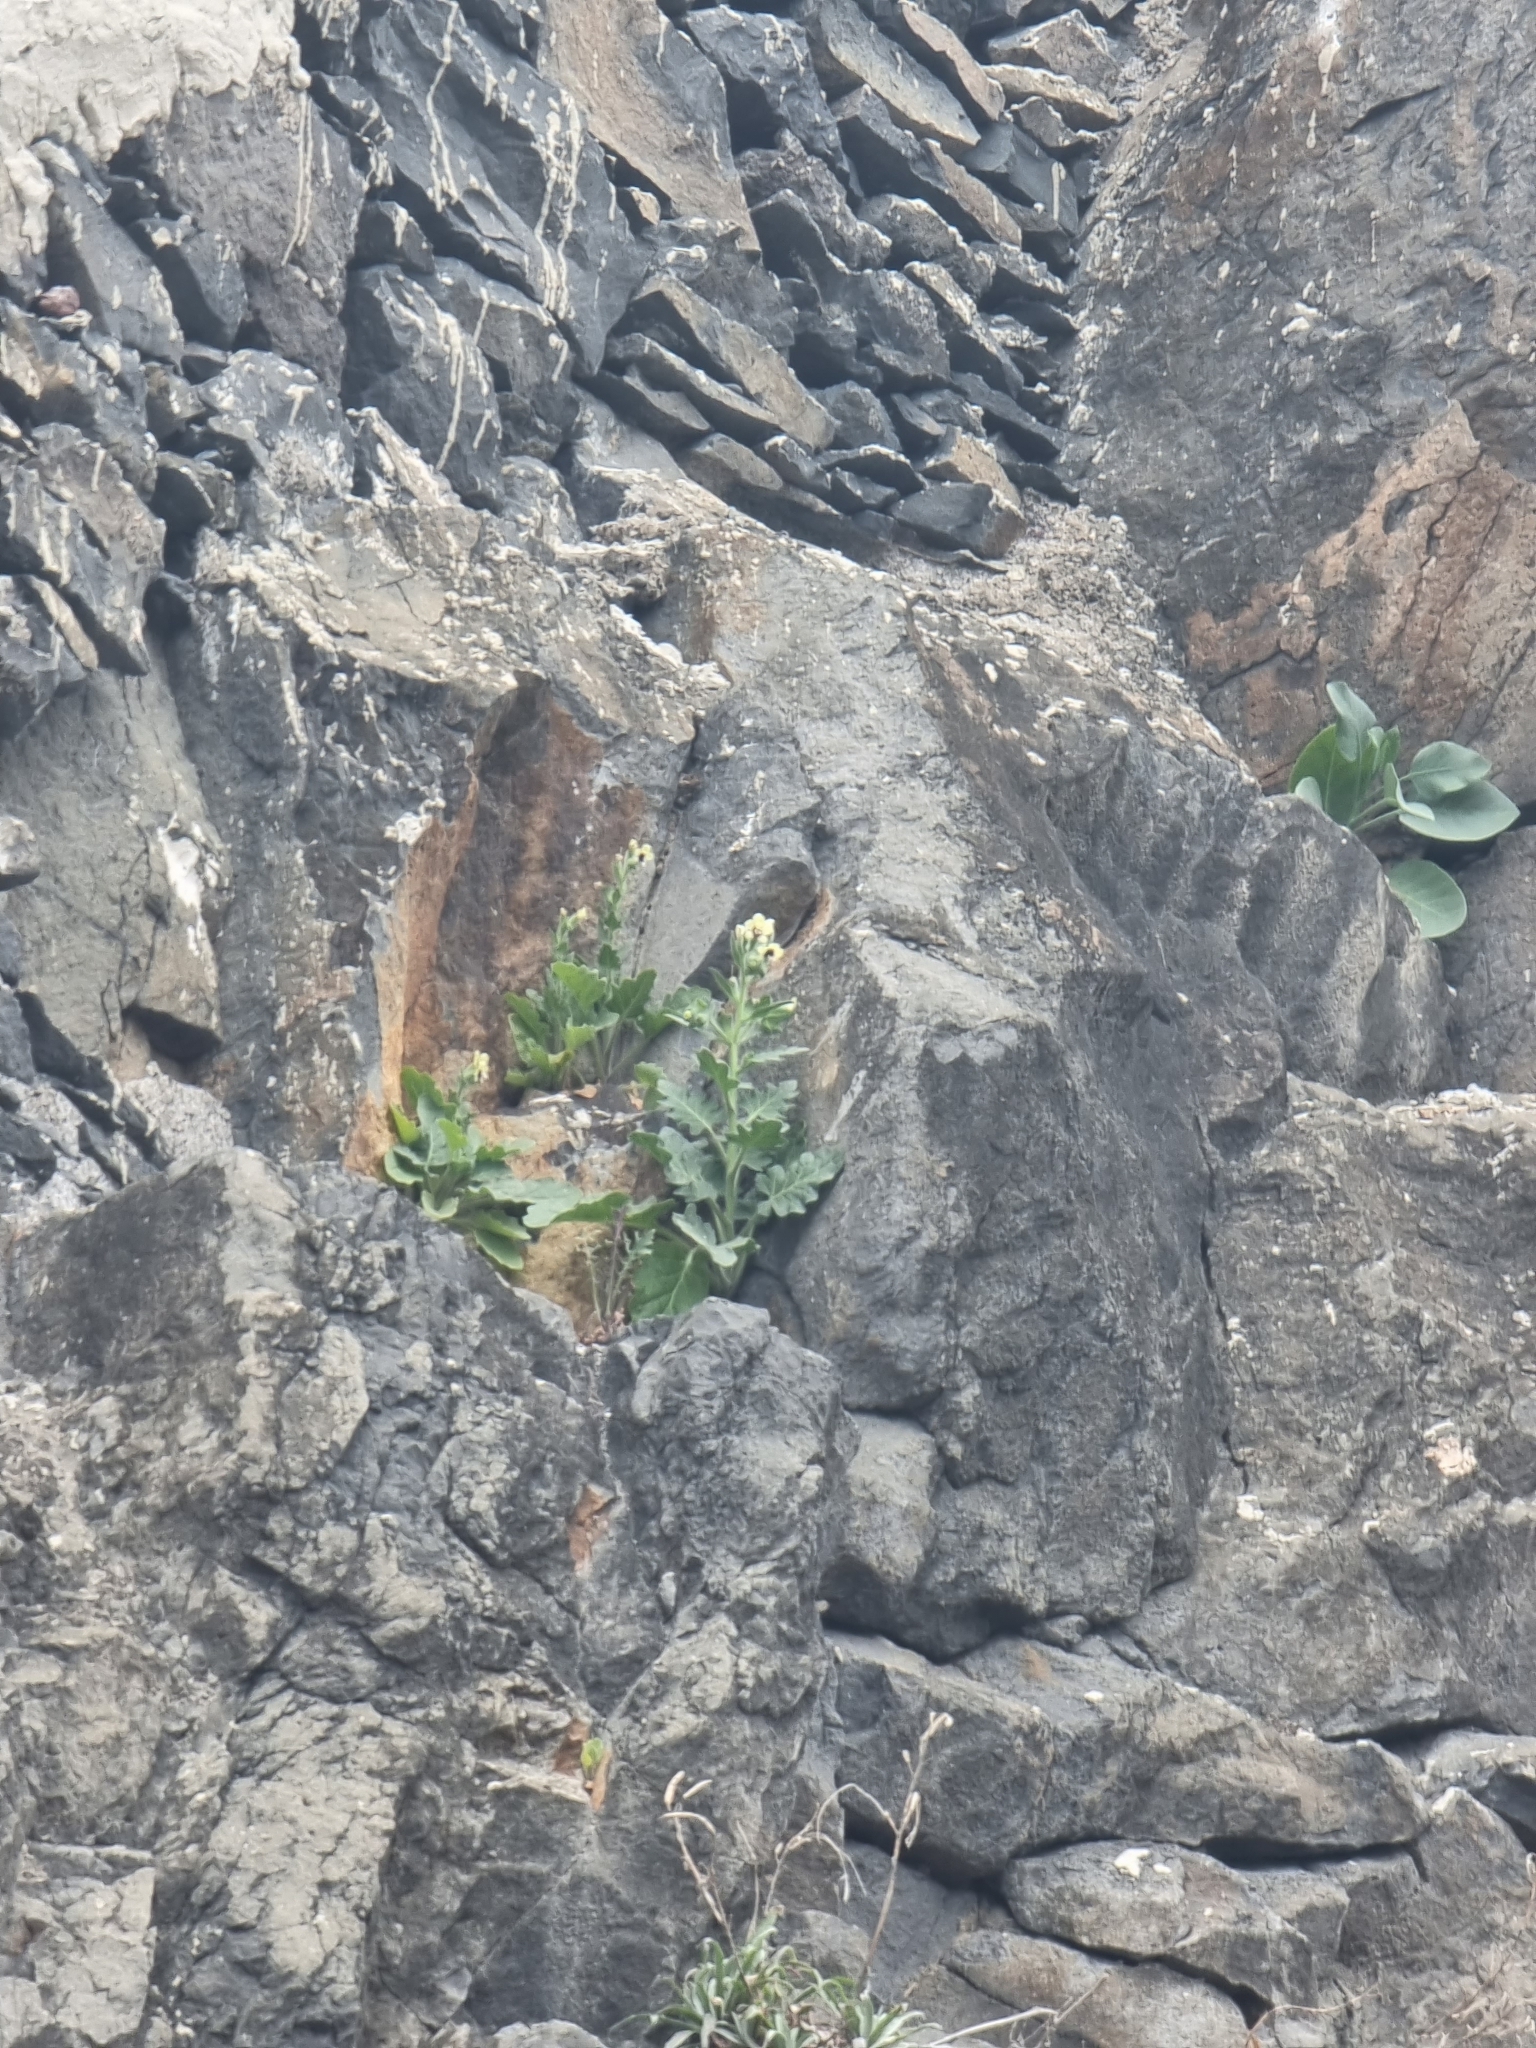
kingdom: Plantae
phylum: Tracheophyta
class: Magnoliopsida
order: Solanales
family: Solanaceae
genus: Hyoscyamus
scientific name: Hyoscyamus albus
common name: White henbane
